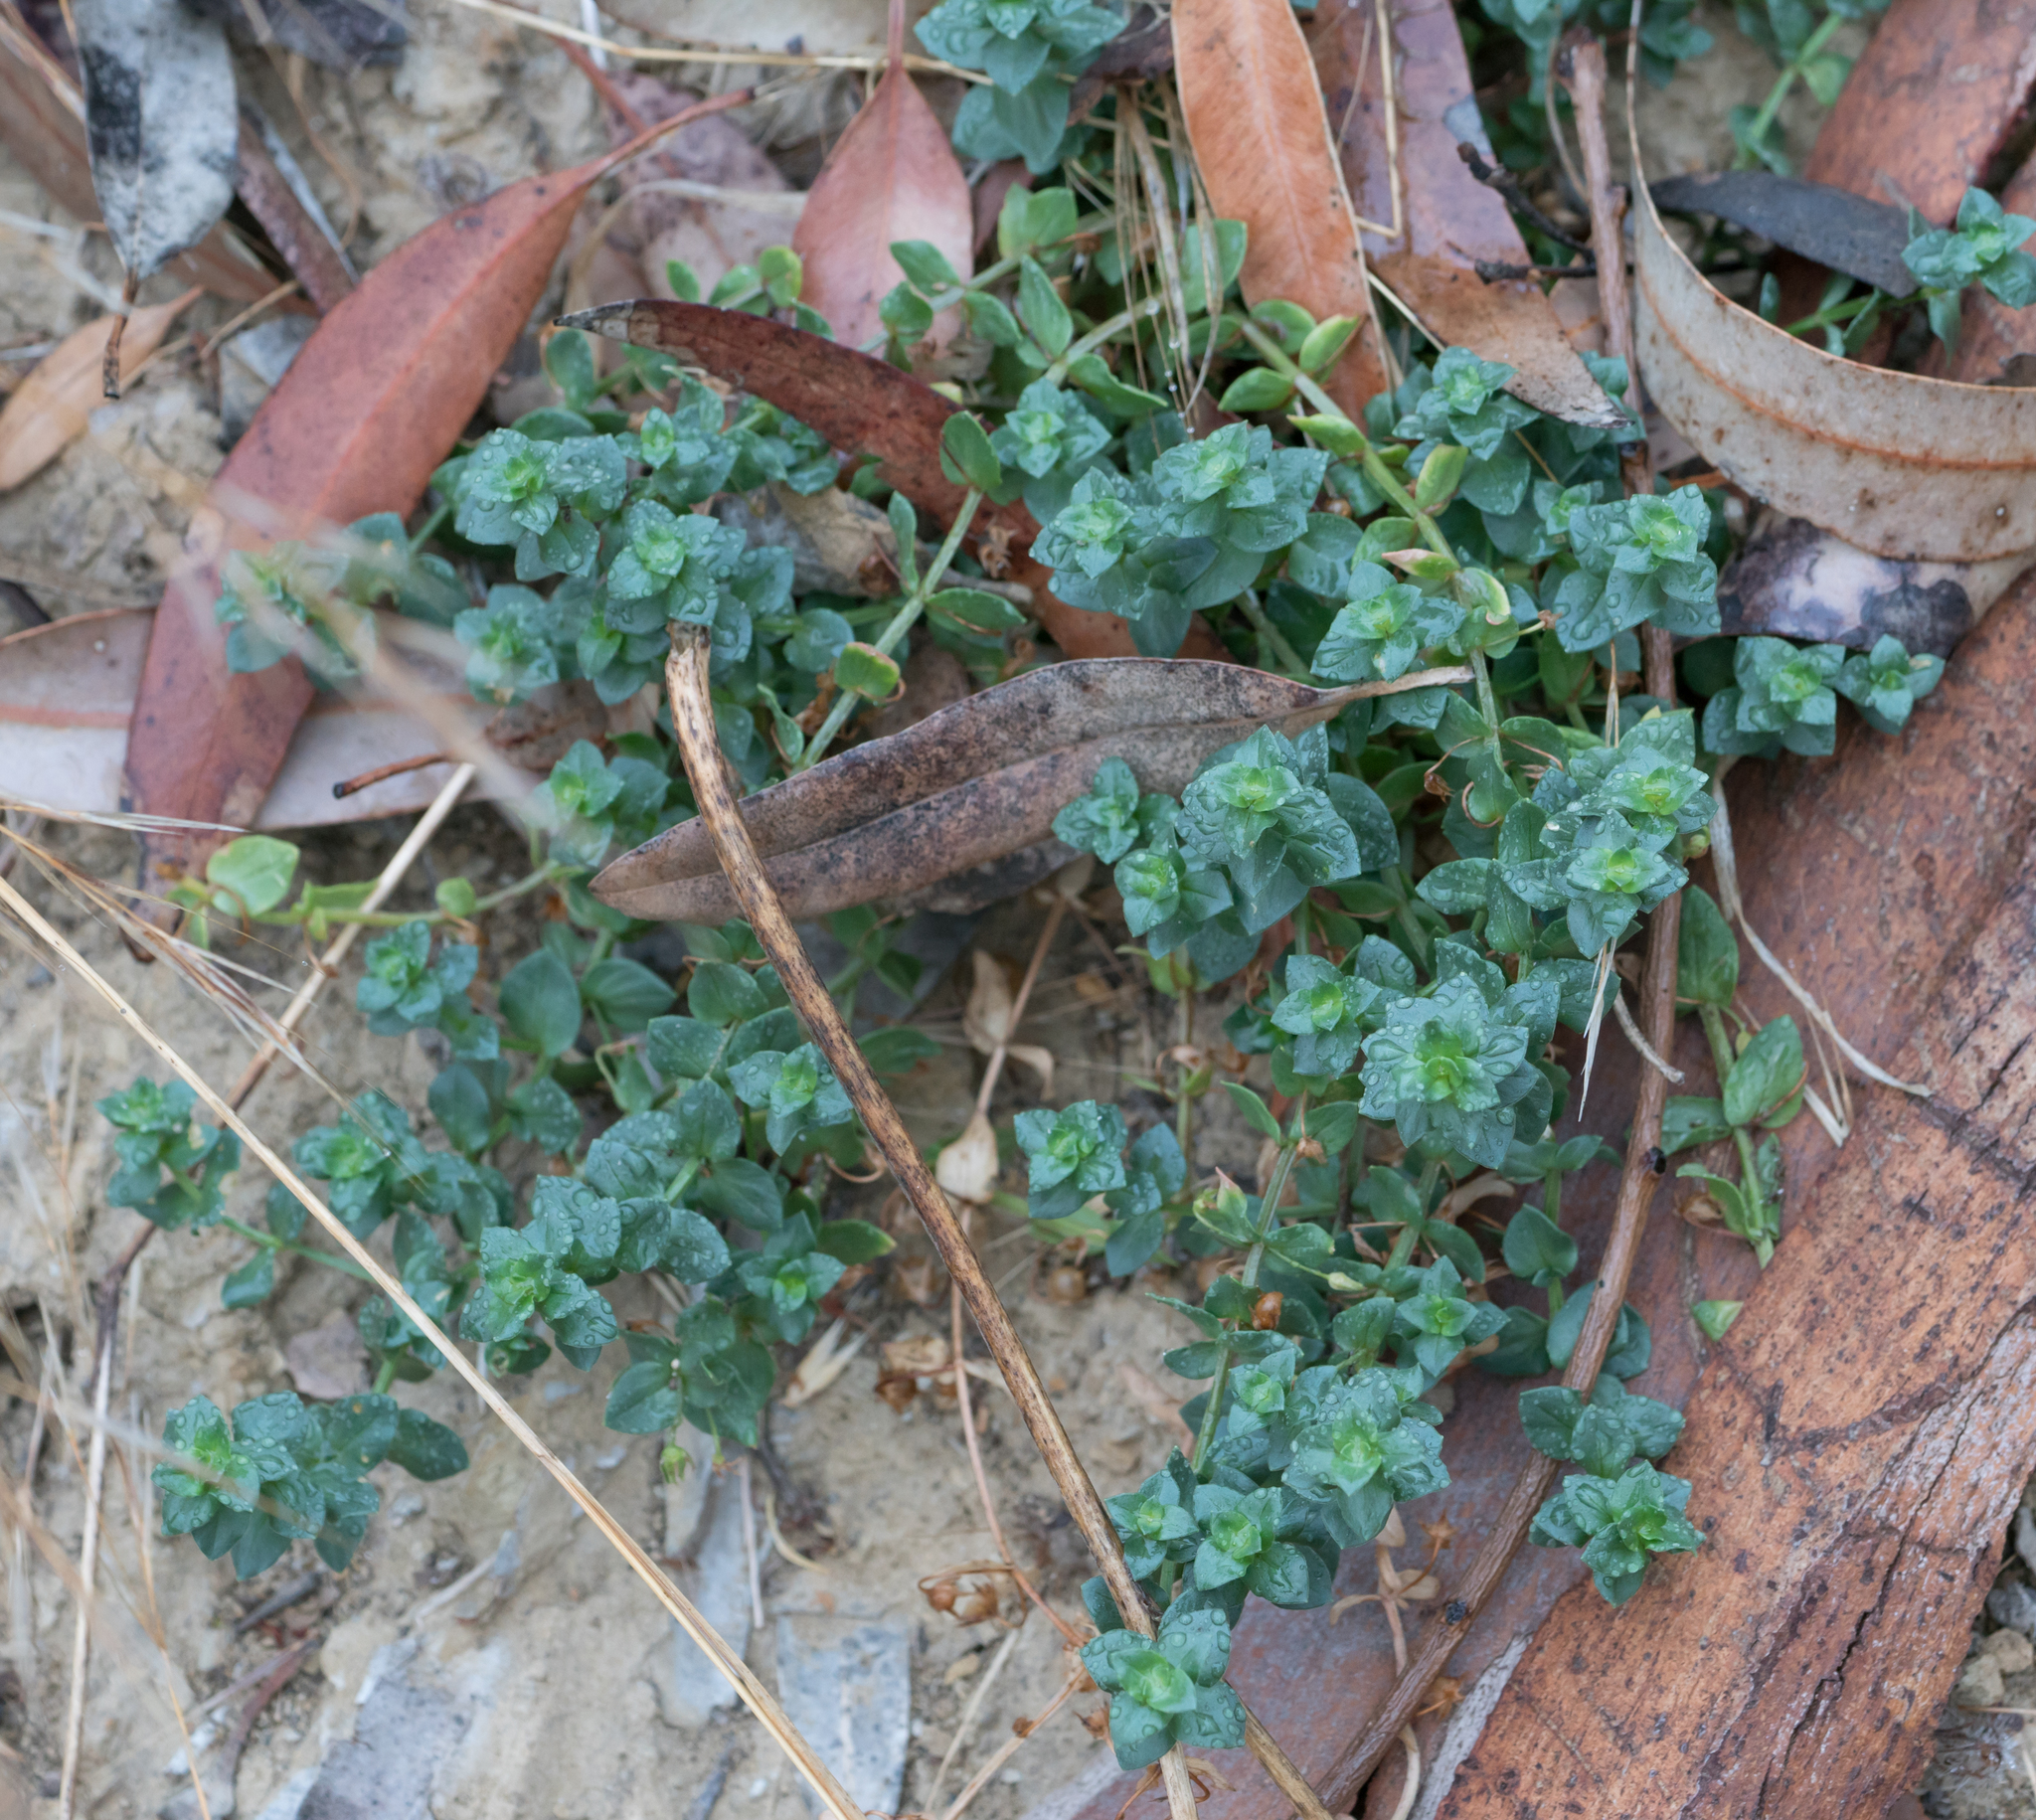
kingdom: Plantae
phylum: Tracheophyta
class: Magnoliopsida
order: Ericales
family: Primulaceae
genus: Lysimachia
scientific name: Lysimachia arvensis
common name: Scarlet pimpernel
